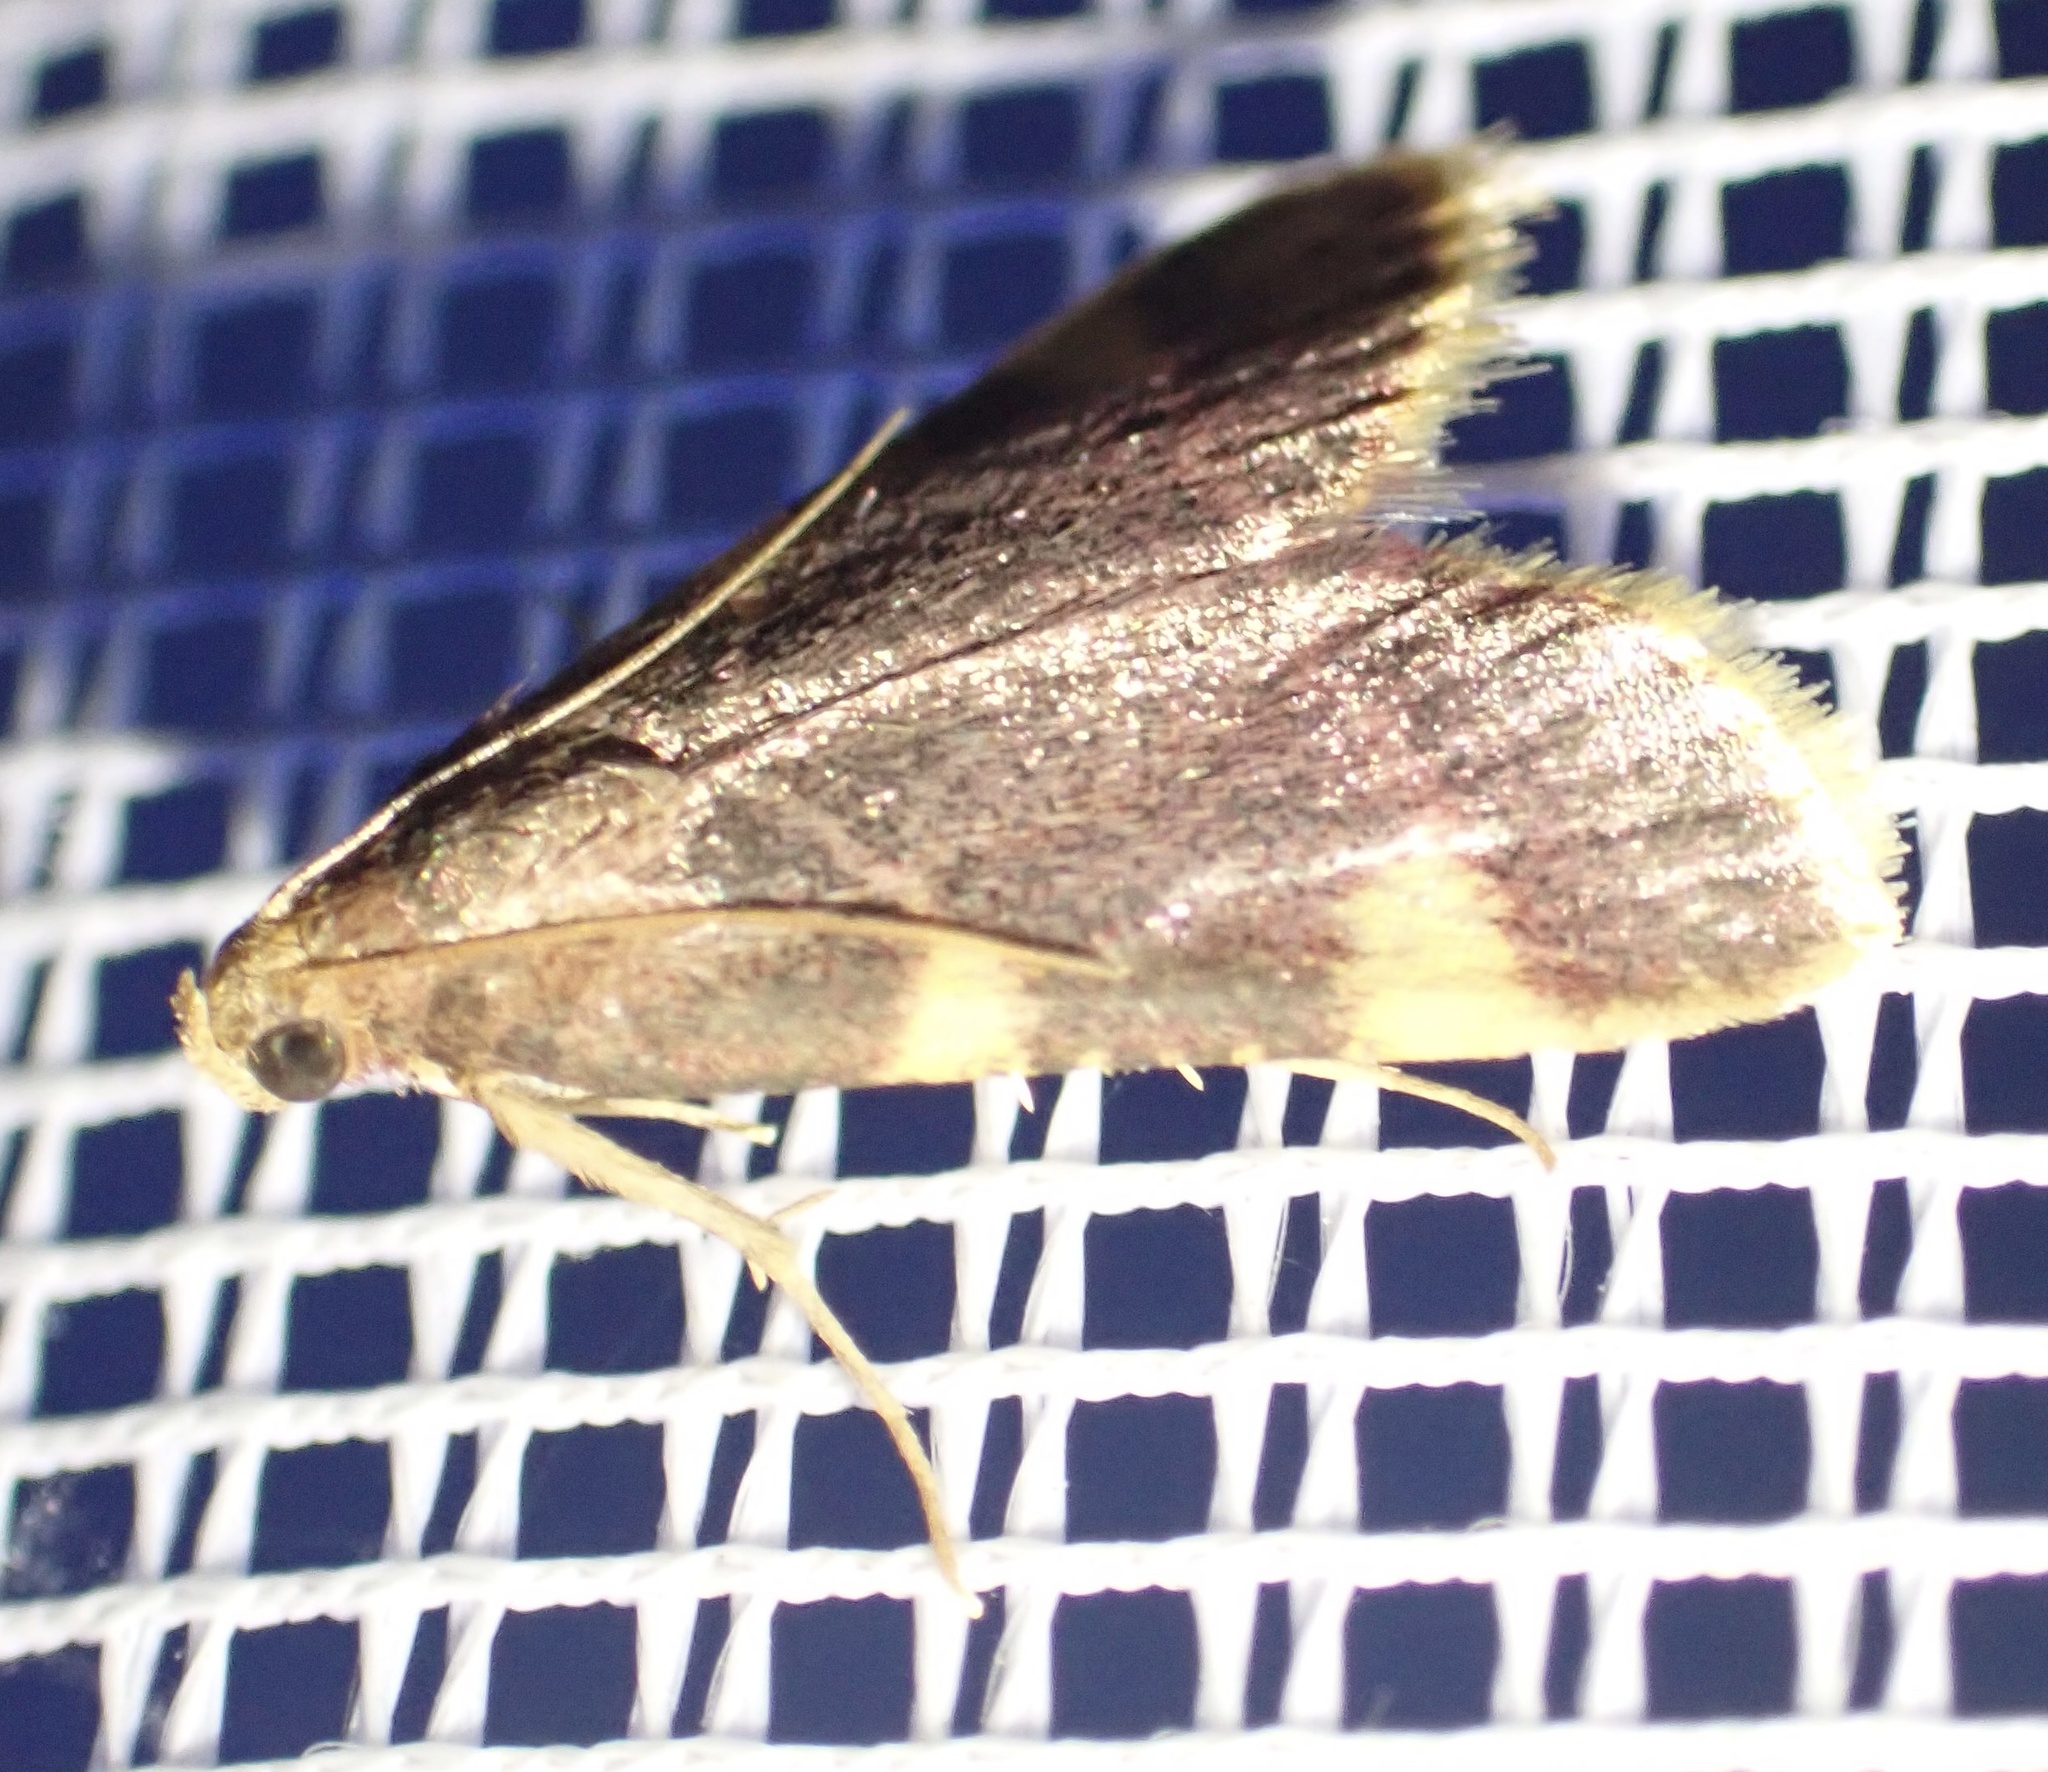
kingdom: Animalia
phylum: Arthropoda
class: Insecta
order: Lepidoptera
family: Pyralidae
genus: Hypsopygia
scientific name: Hypsopygia costalis
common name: Gold triangle
